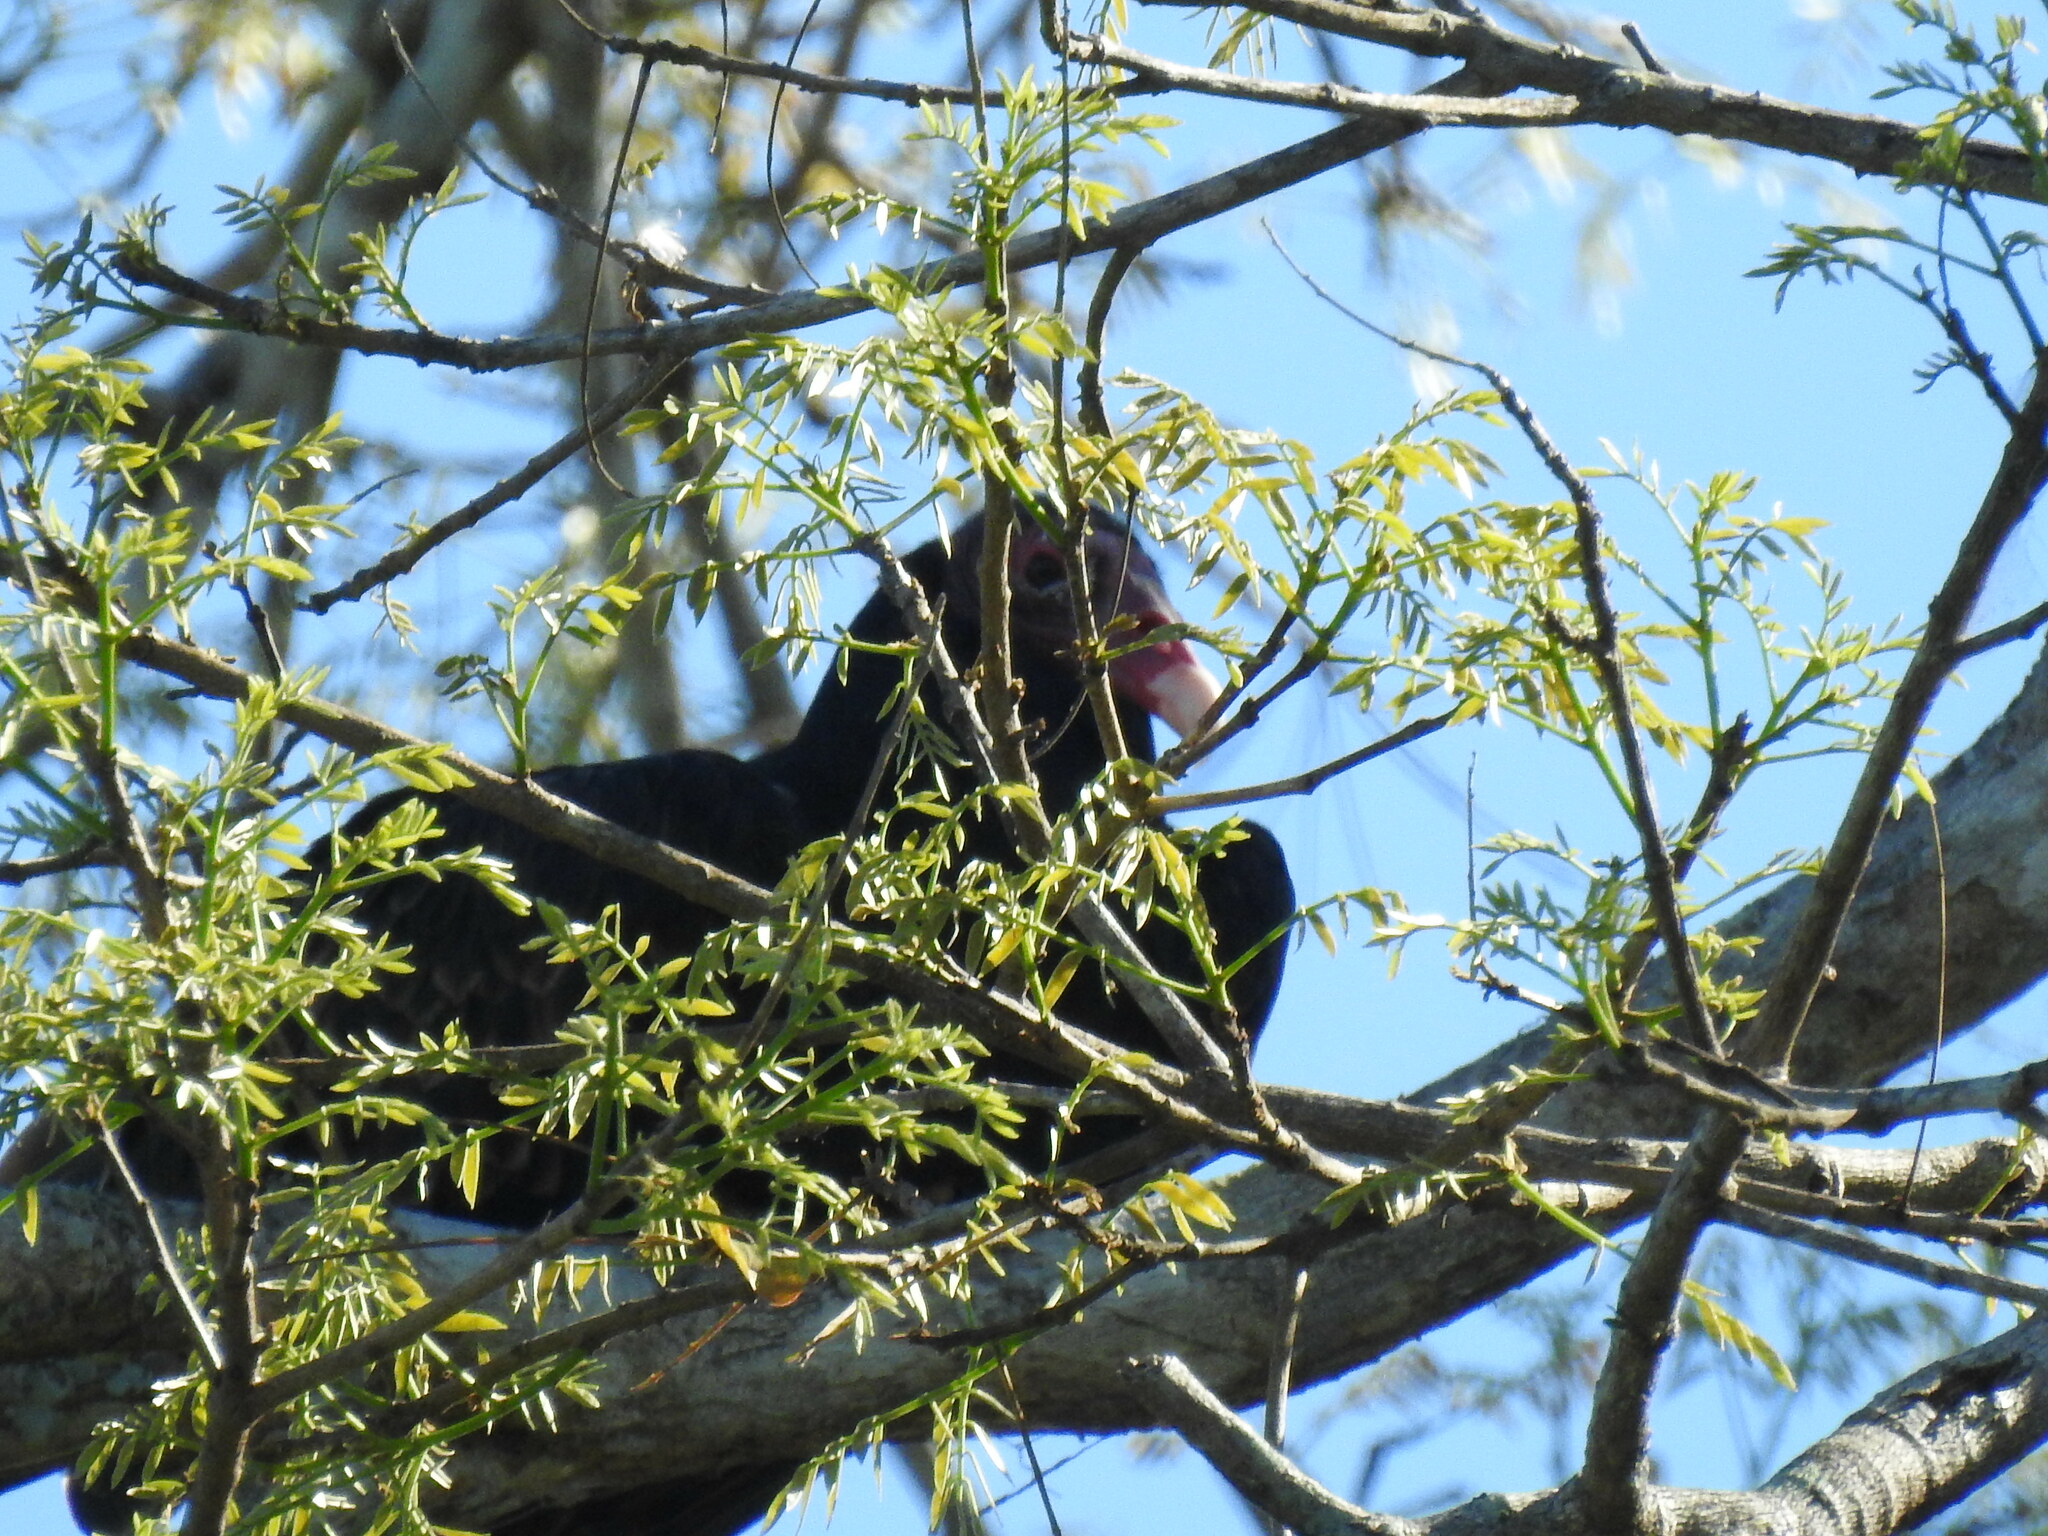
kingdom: Animalia
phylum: Chordata
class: Aves
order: Accipitriformes
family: Cathartidae
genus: Cathartes
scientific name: Cathartes aura
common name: Turkey vulture
